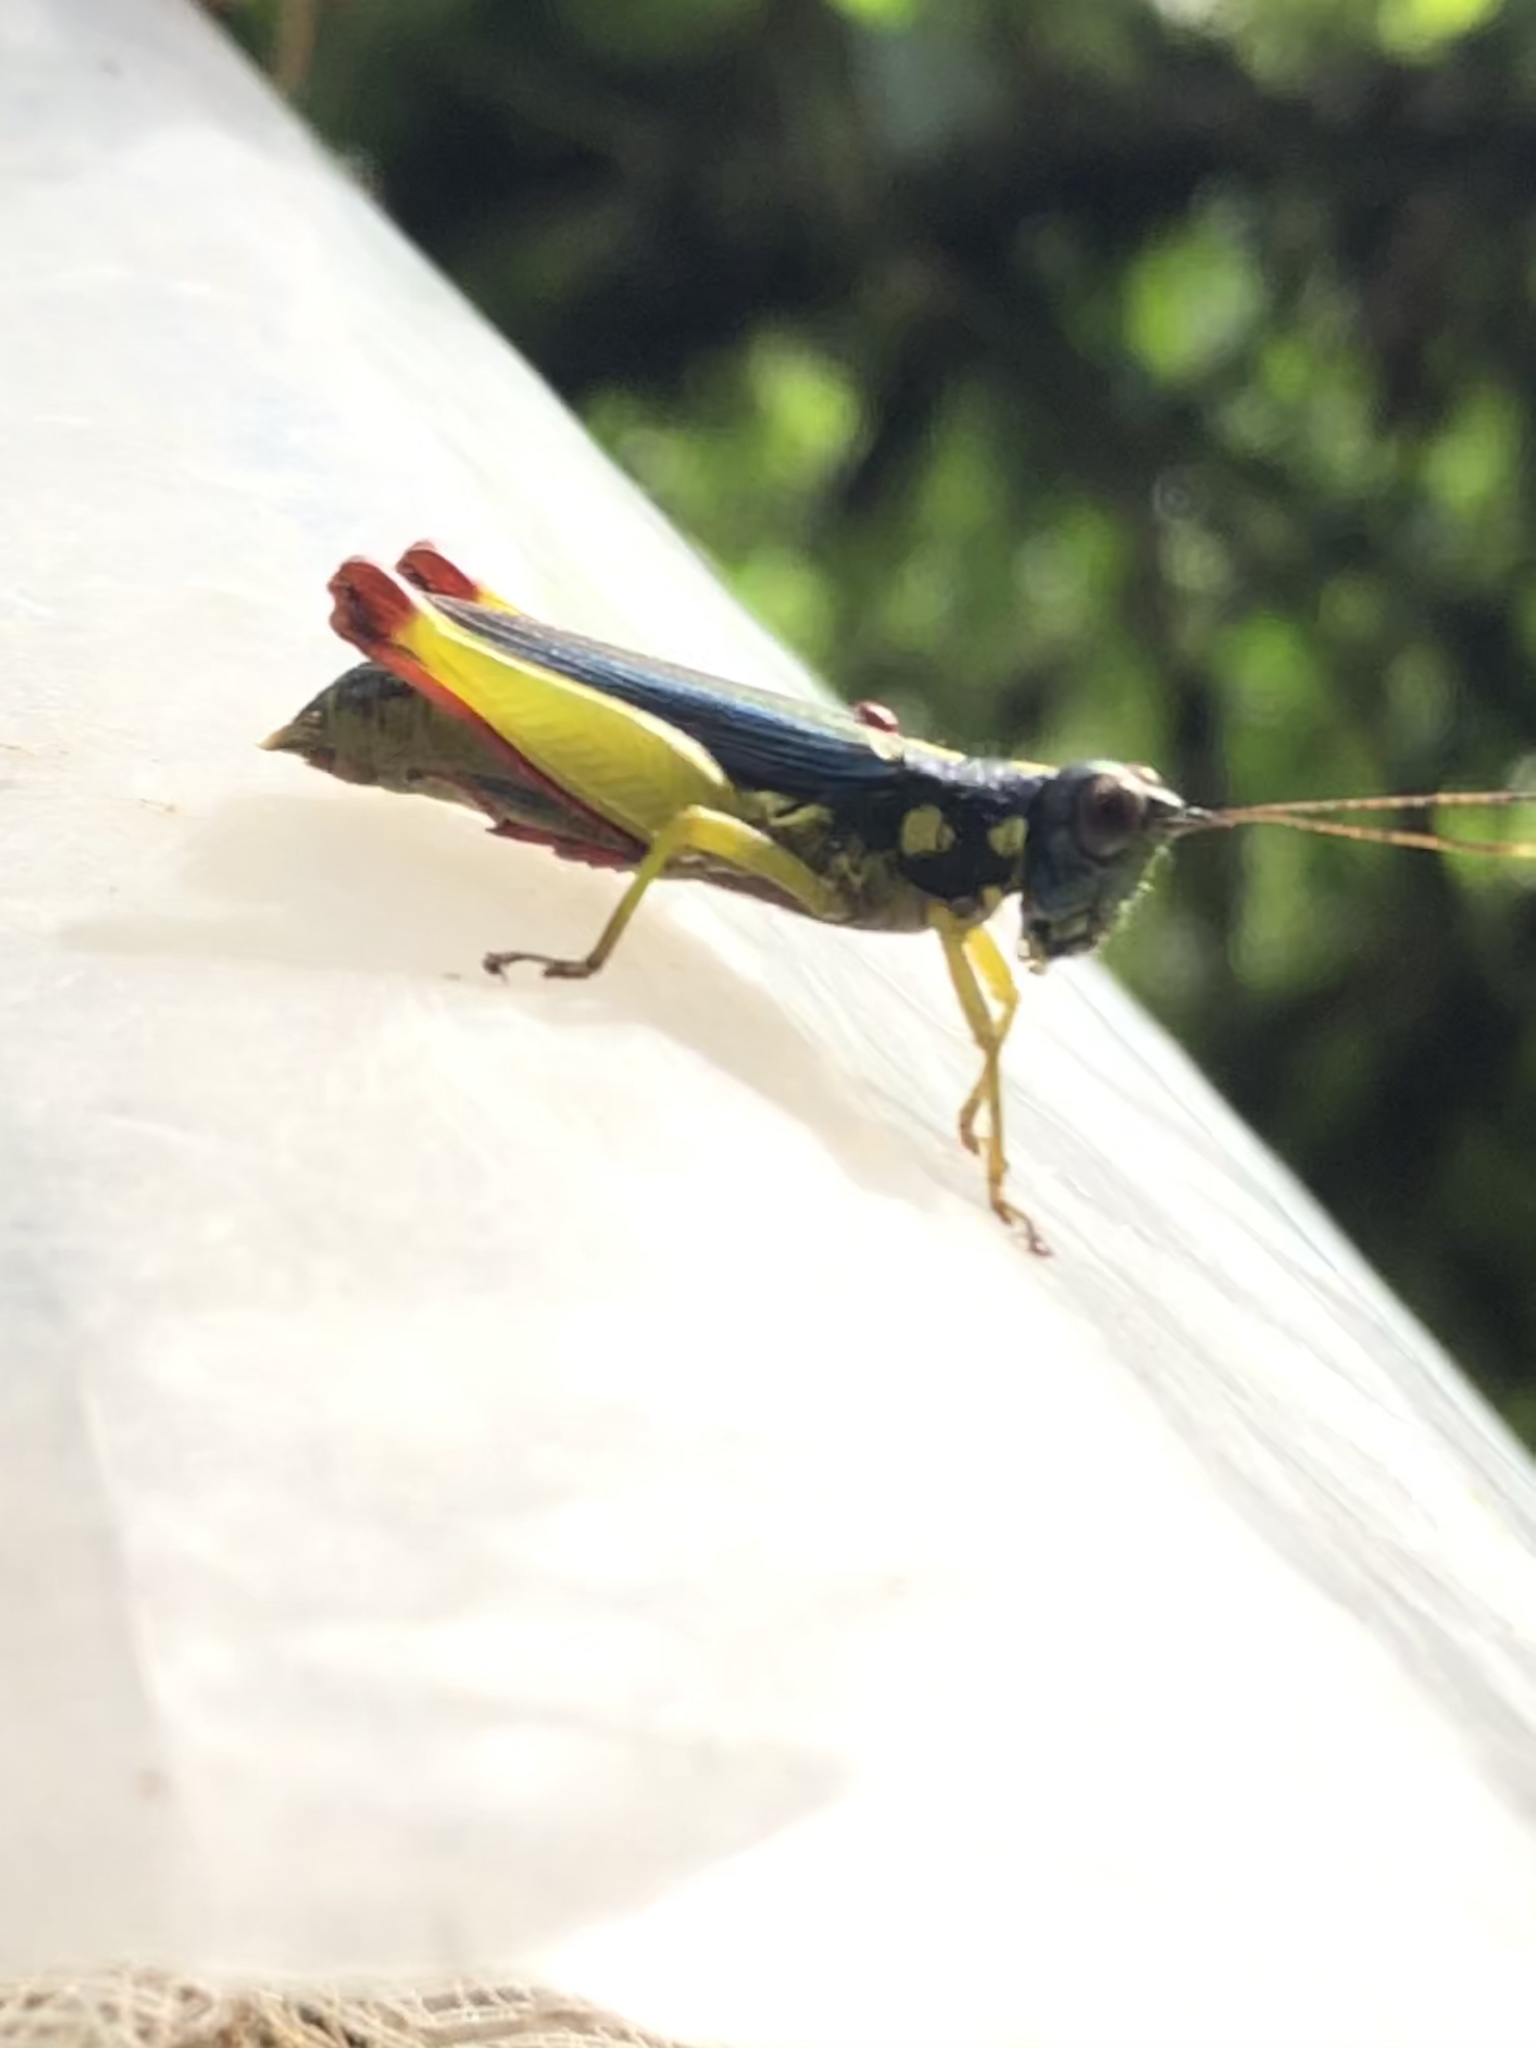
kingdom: Animalia
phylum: Arthropoda
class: Insecta
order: Orthoptera
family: Acrididae
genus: Poecilocloeus
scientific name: Poecilocloeus uncinatus
